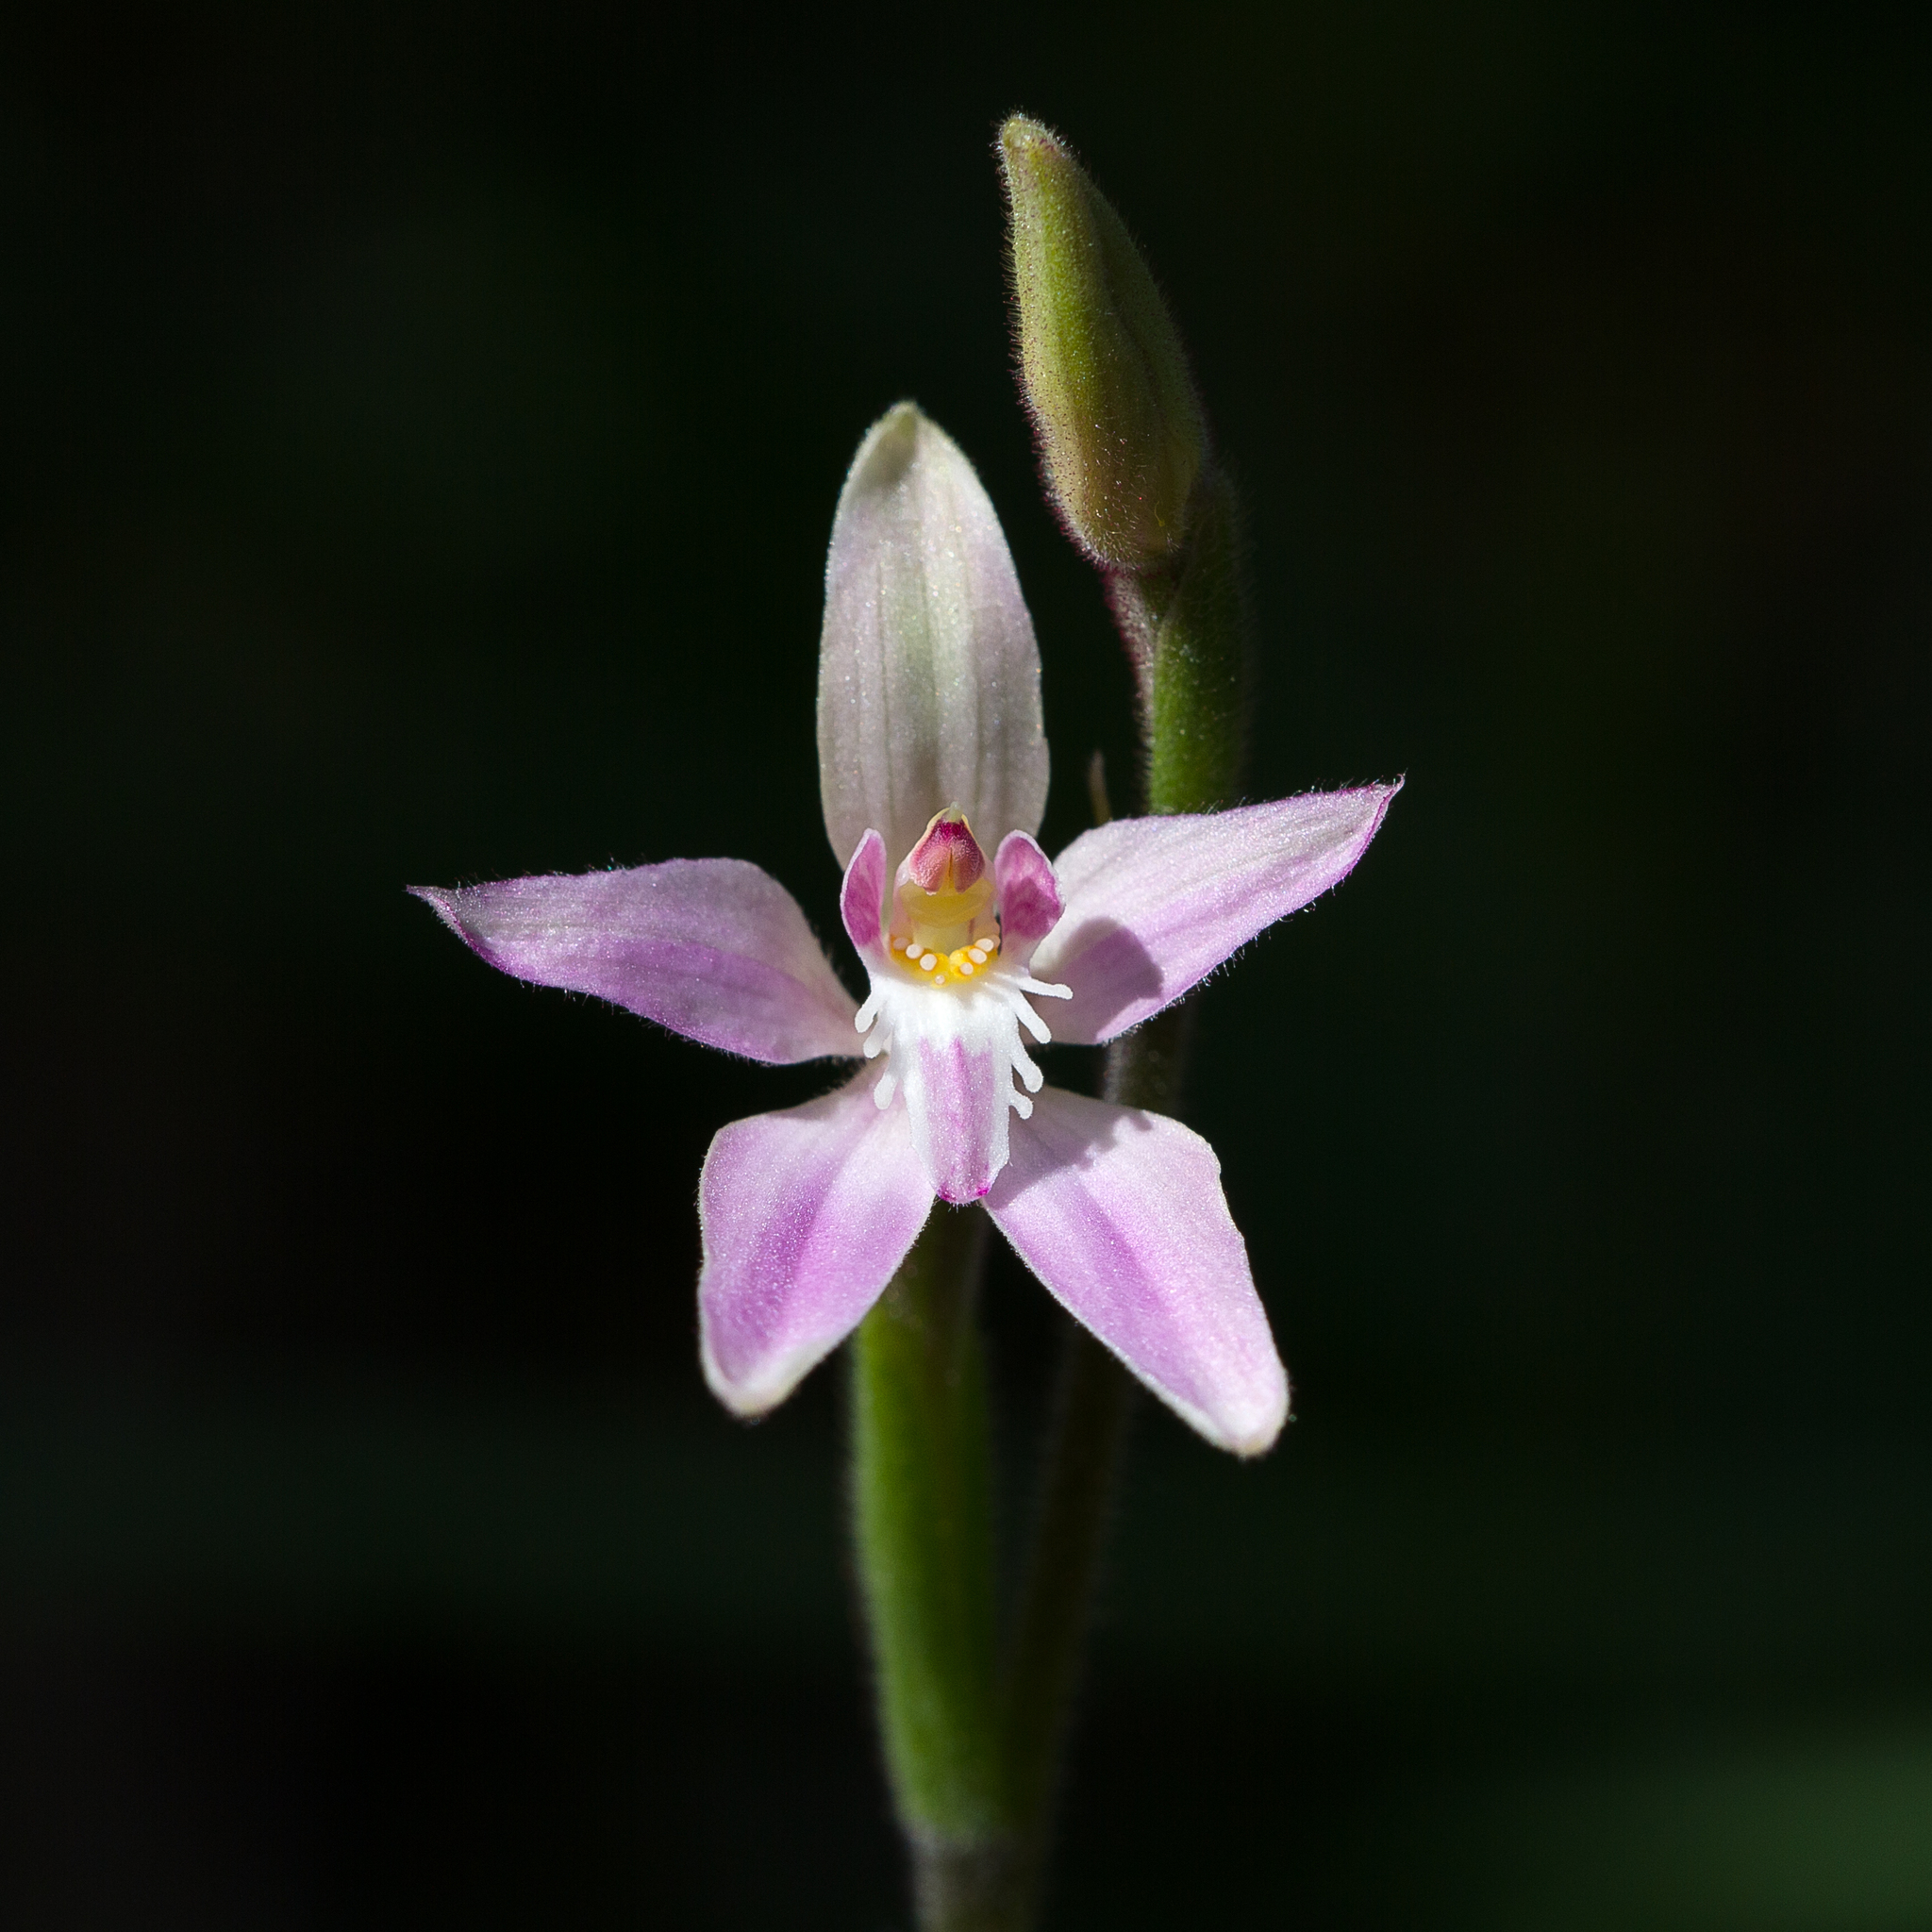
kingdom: Plantae
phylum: Tracheophyta
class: Liliopsida
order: Asparagales
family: Orchidaceae
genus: Caladenia
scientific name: Caladenia latifolia
